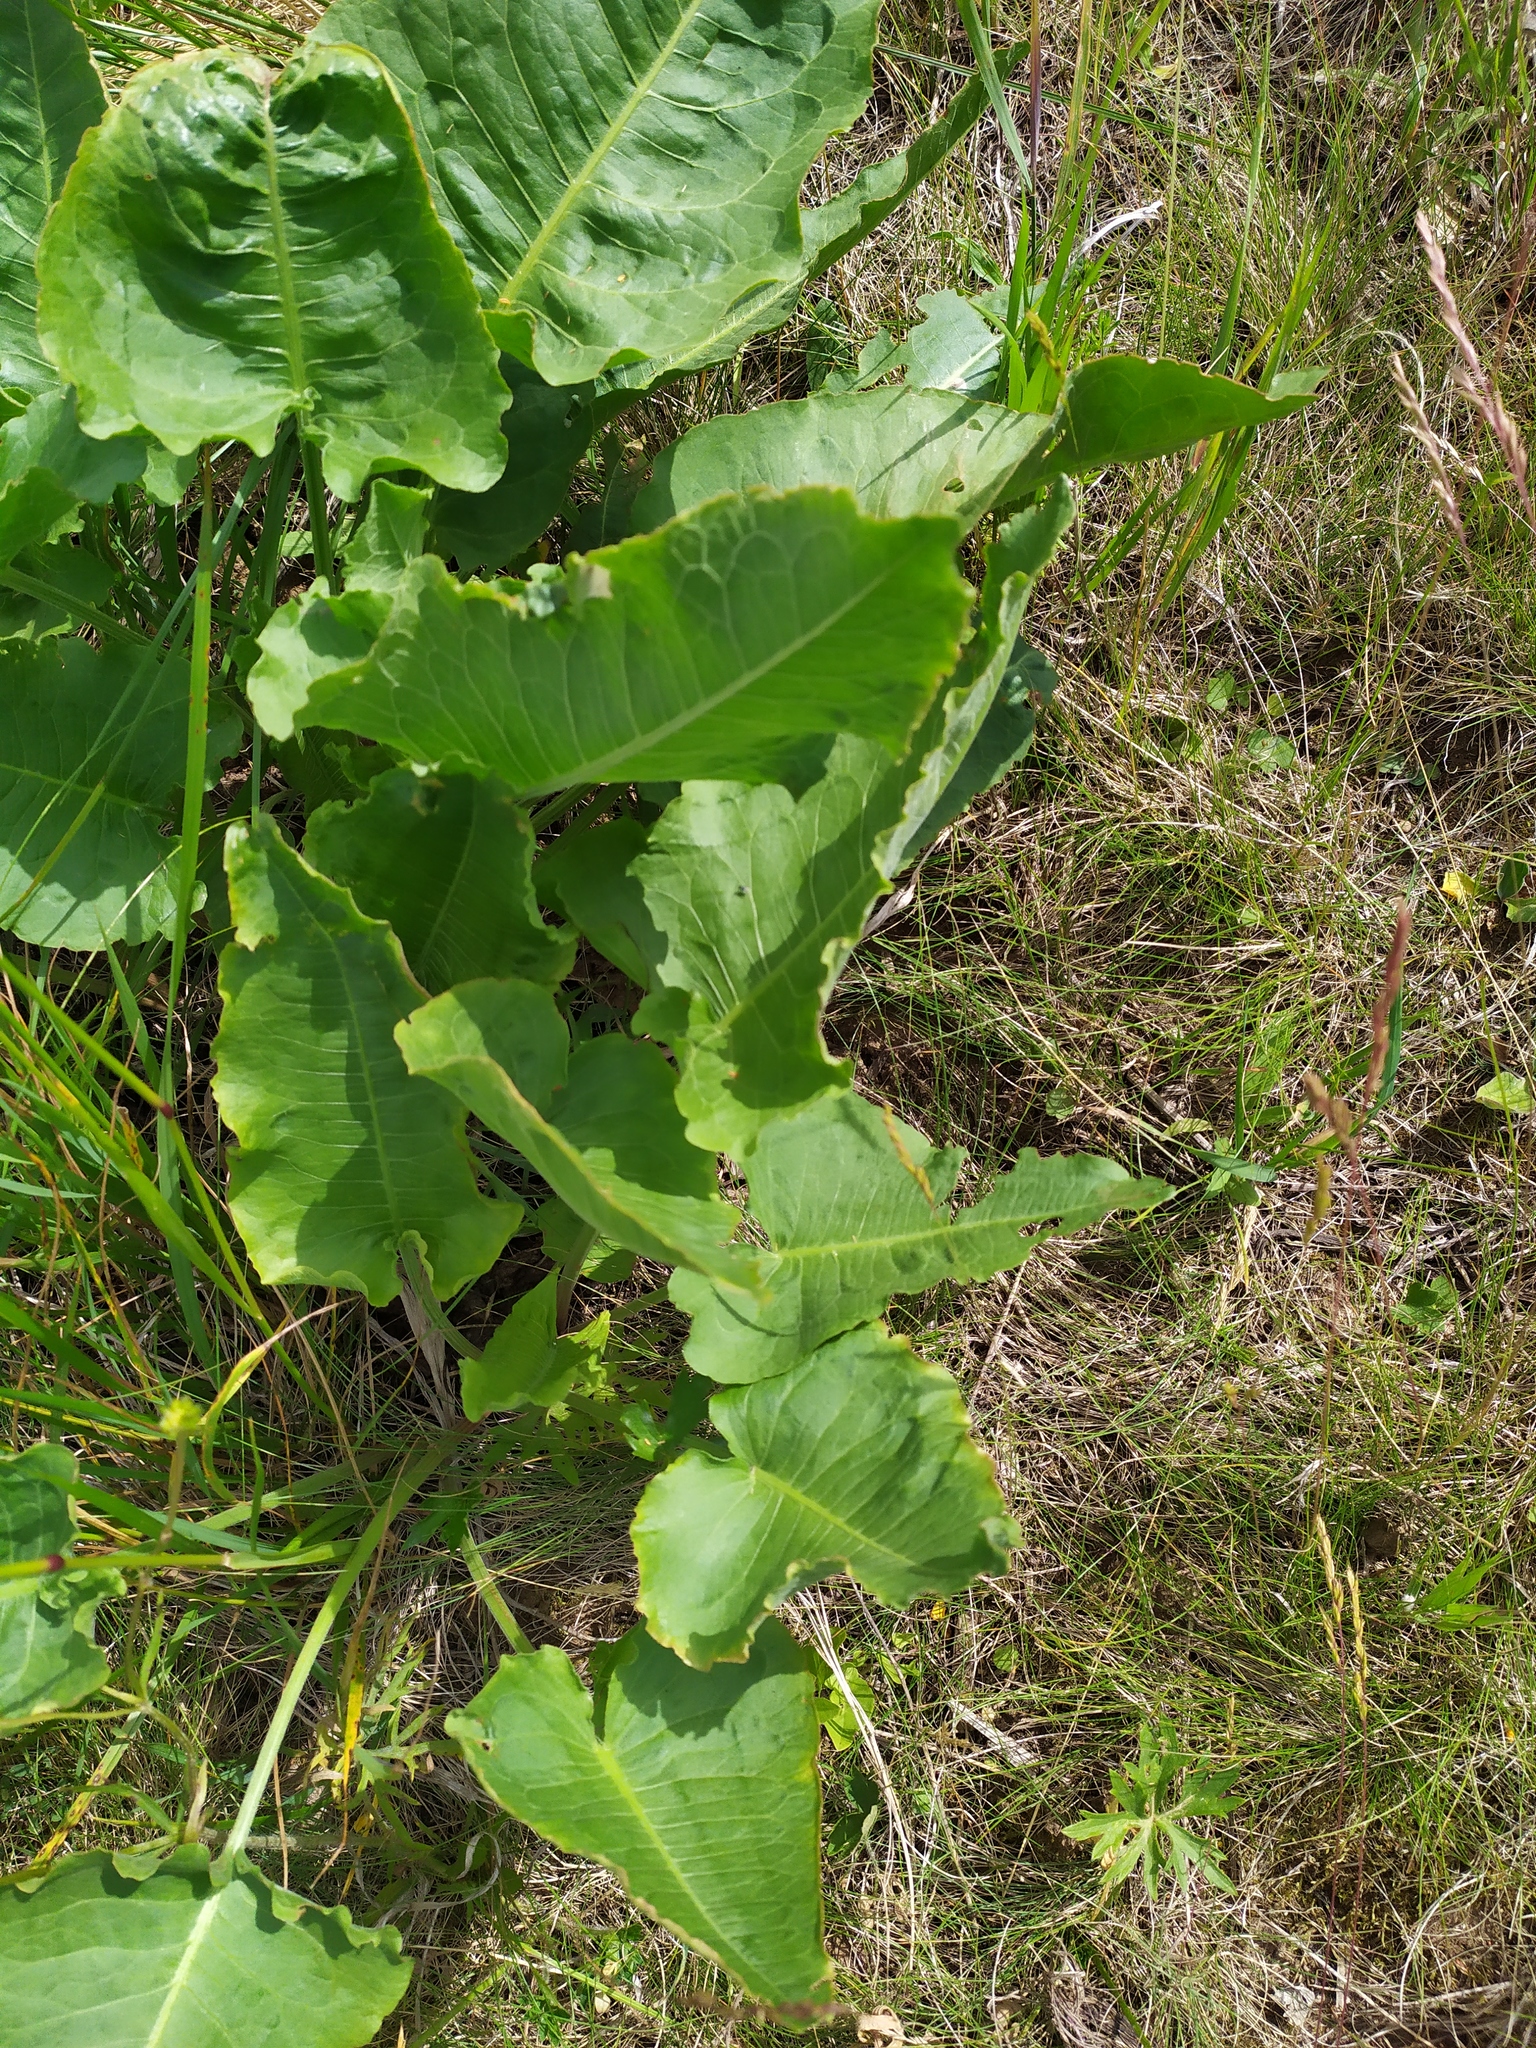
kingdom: Plantae
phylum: Tracheophyta
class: Magnoliopsida
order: Caryophyllales
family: Polygonaceae
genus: Rumex
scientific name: Rumex confertus
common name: Russian dock
